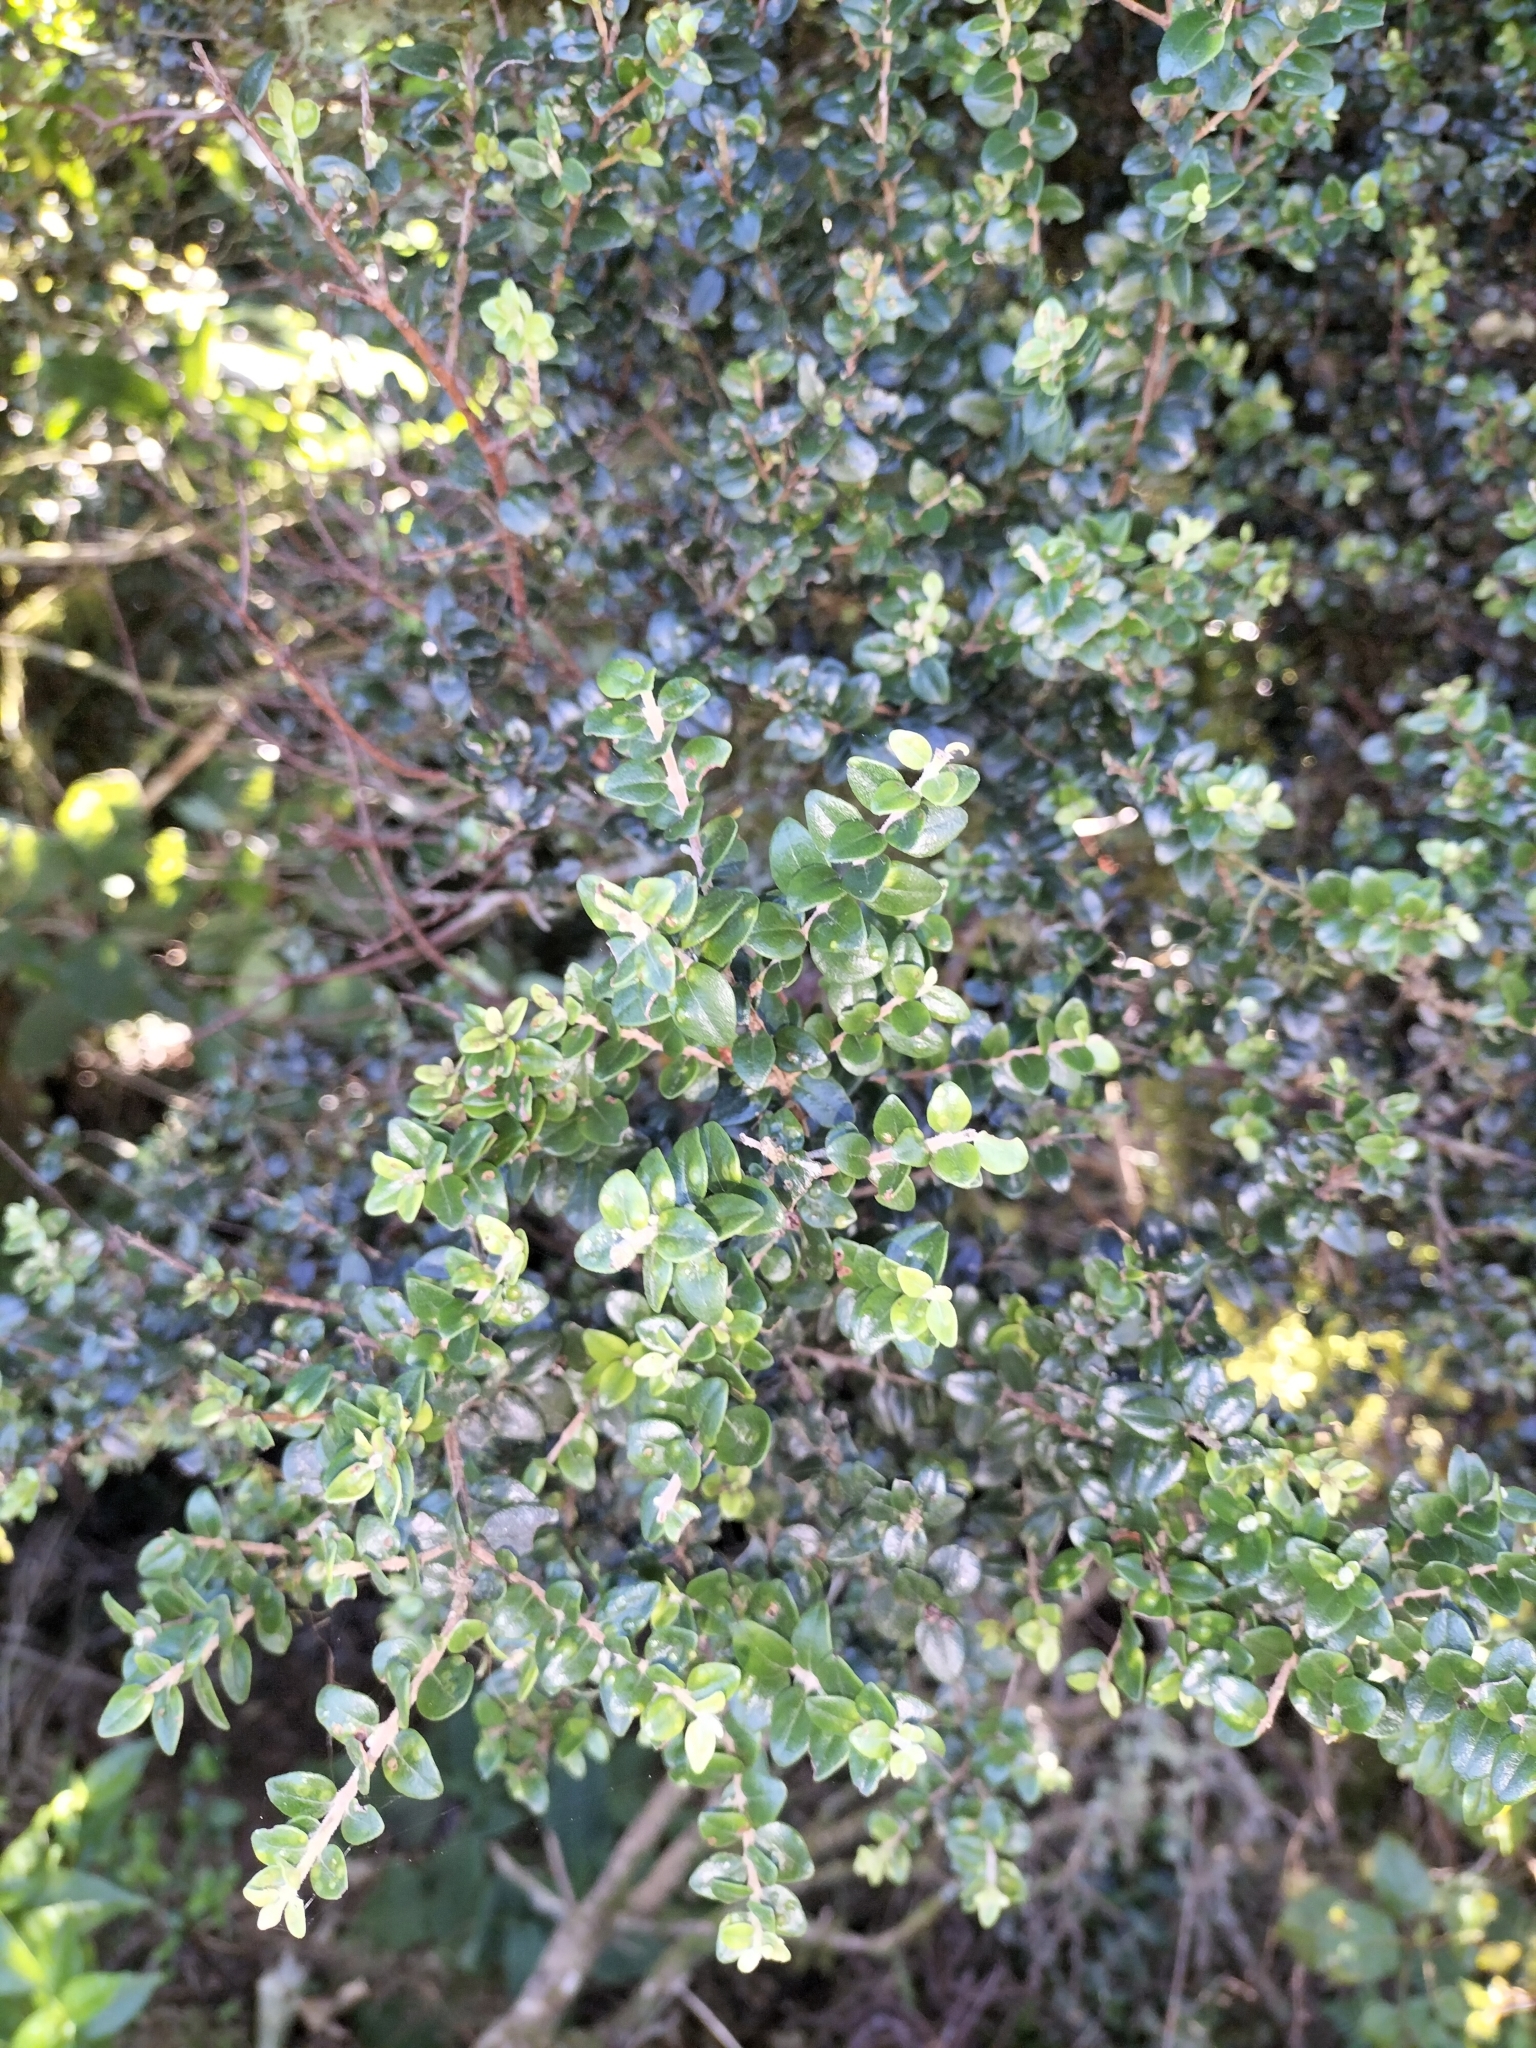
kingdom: Plantae
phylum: Tracheophyta
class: Magnoliopsida
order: Myrtales
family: Myrtaceae
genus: Metrosideros
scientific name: Metrosideros perforata
